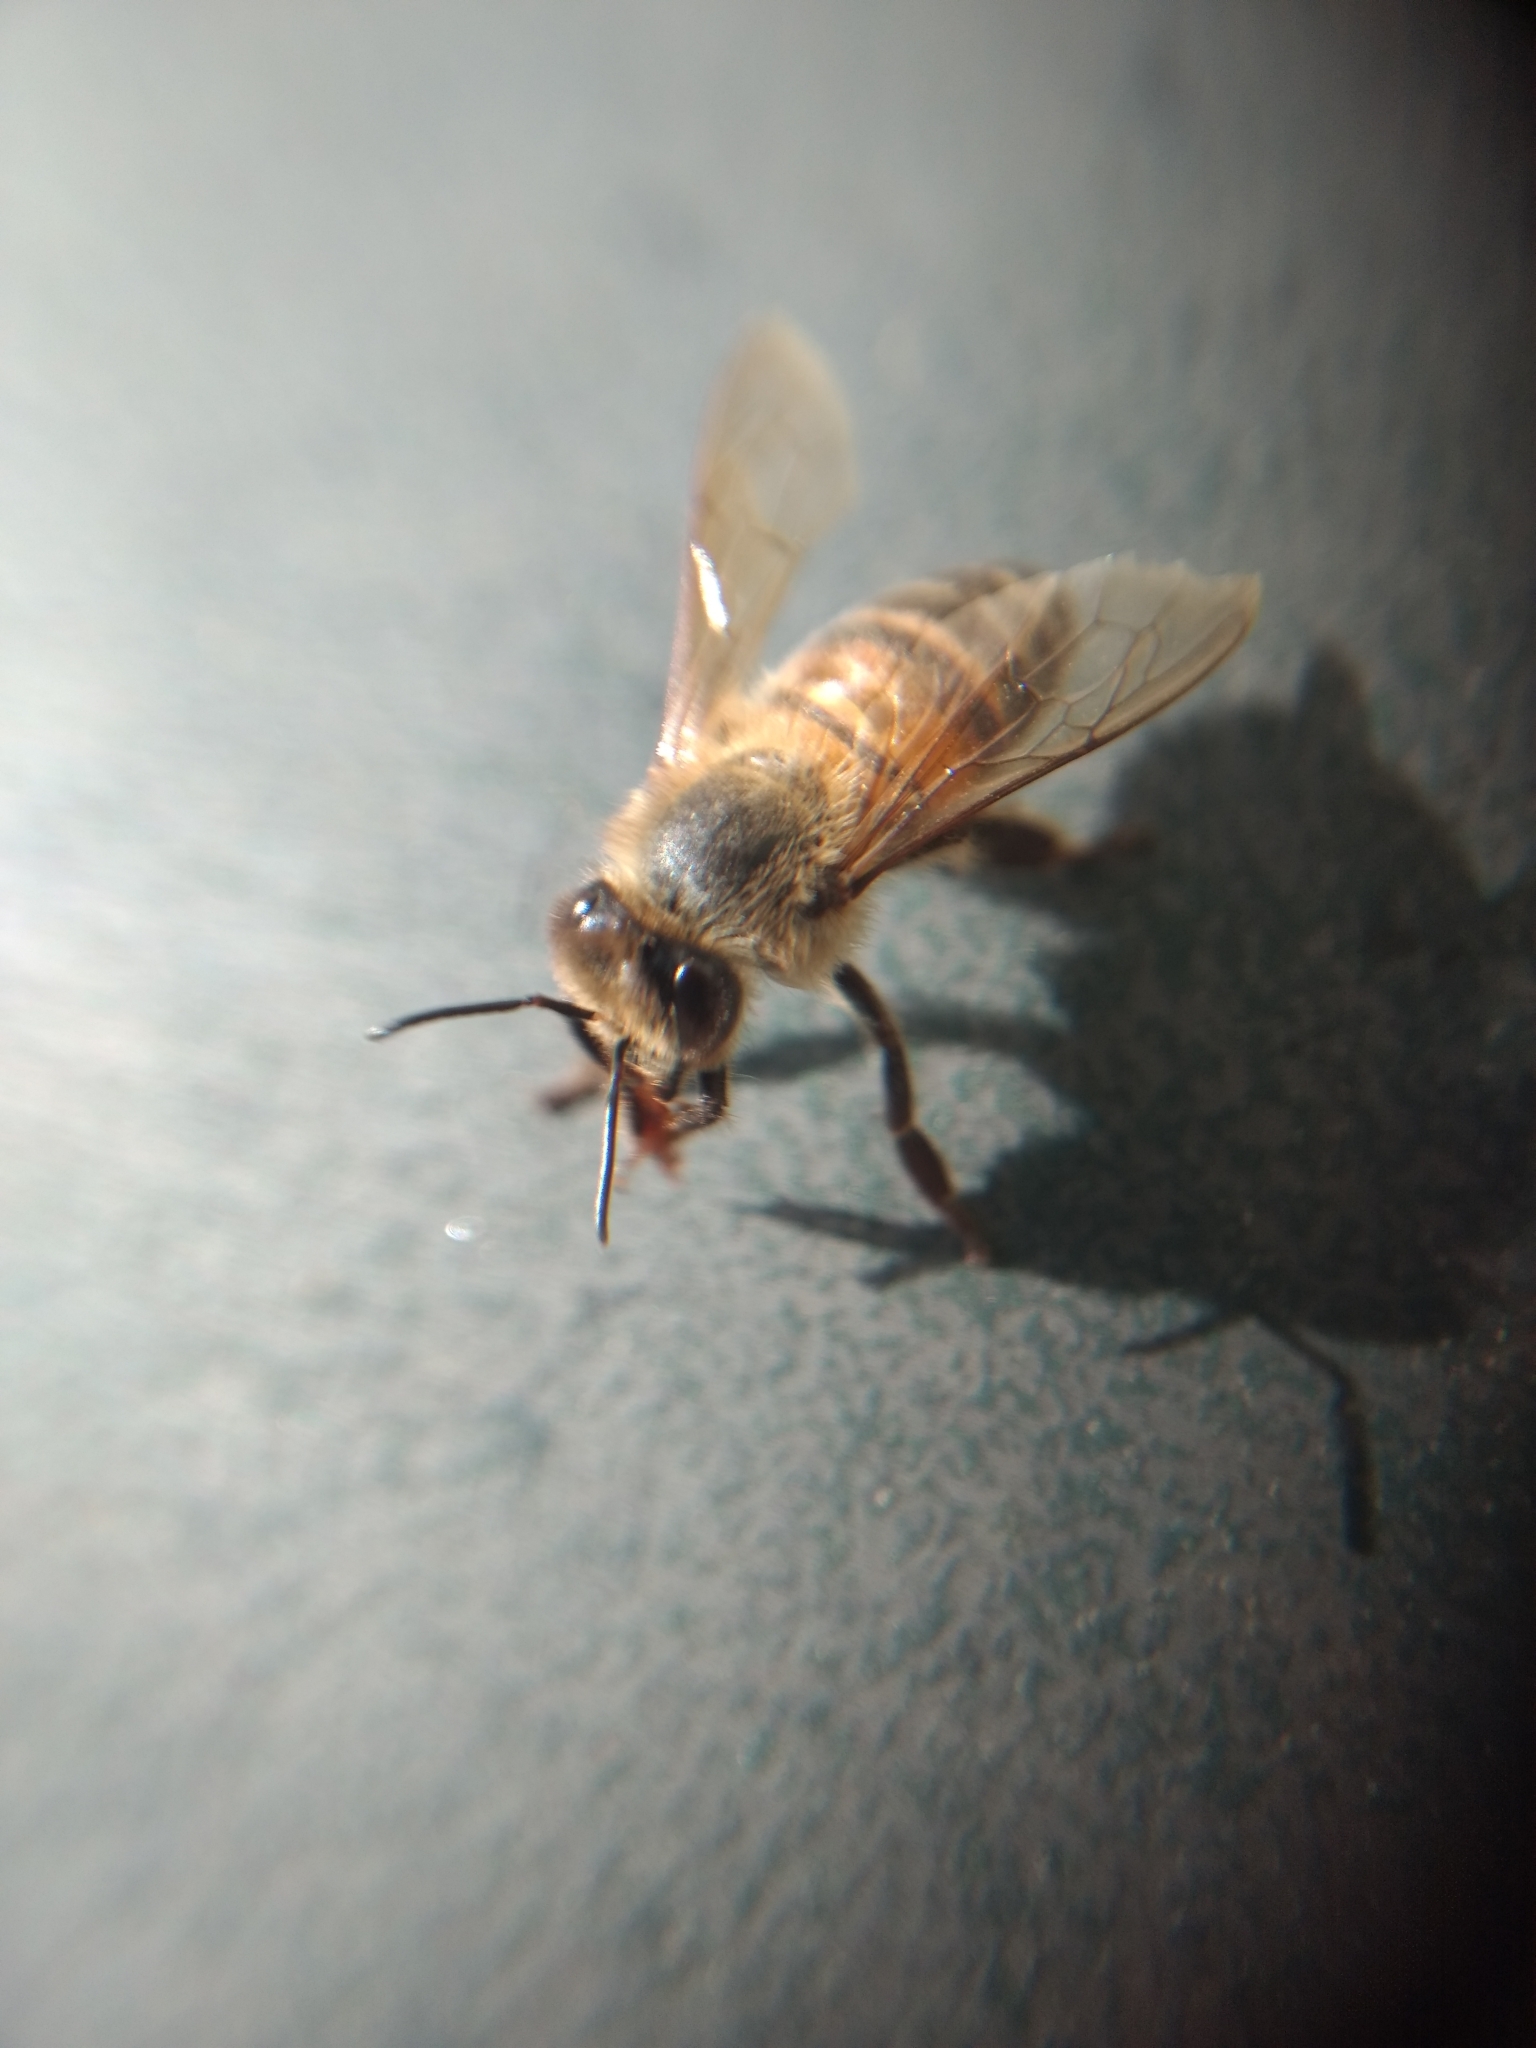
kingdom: Animalia
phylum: Arthropoda
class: Insecta
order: Hymenoptera
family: Apidae
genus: Apis
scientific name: Apis mellifera
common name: Honey bee
